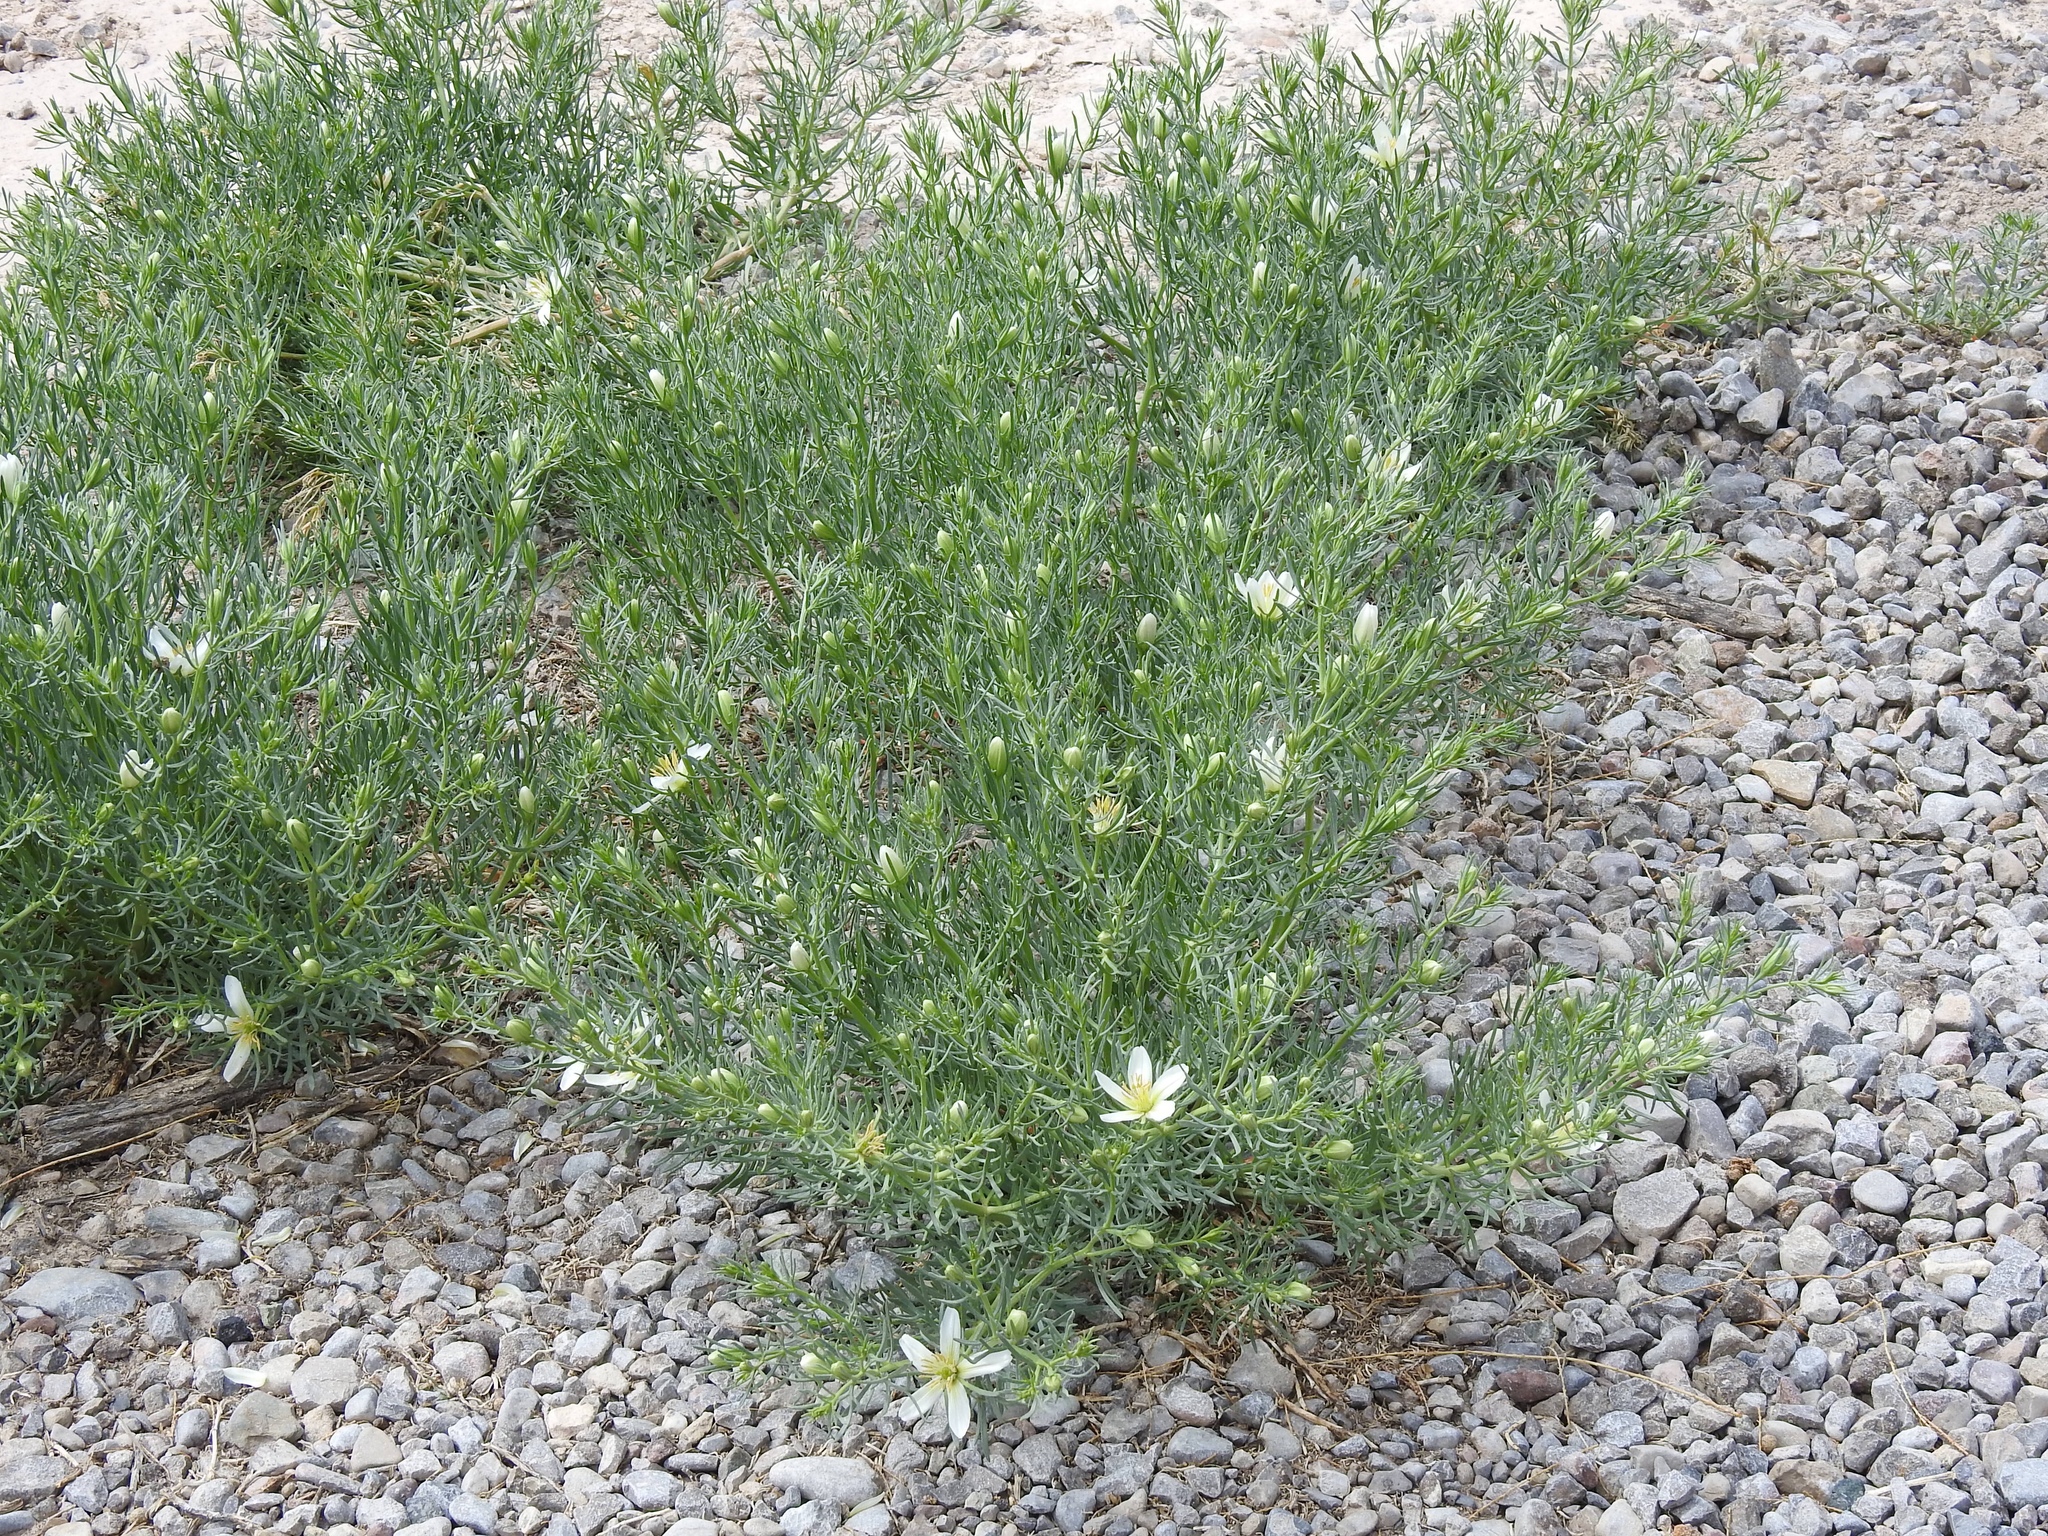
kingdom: Plantae
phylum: Tracheophyta
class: Magnoliopsida
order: Sapindales
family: Tetradiclidaceae
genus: Peganum
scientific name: Peganum harmala
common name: Harmal peganum
